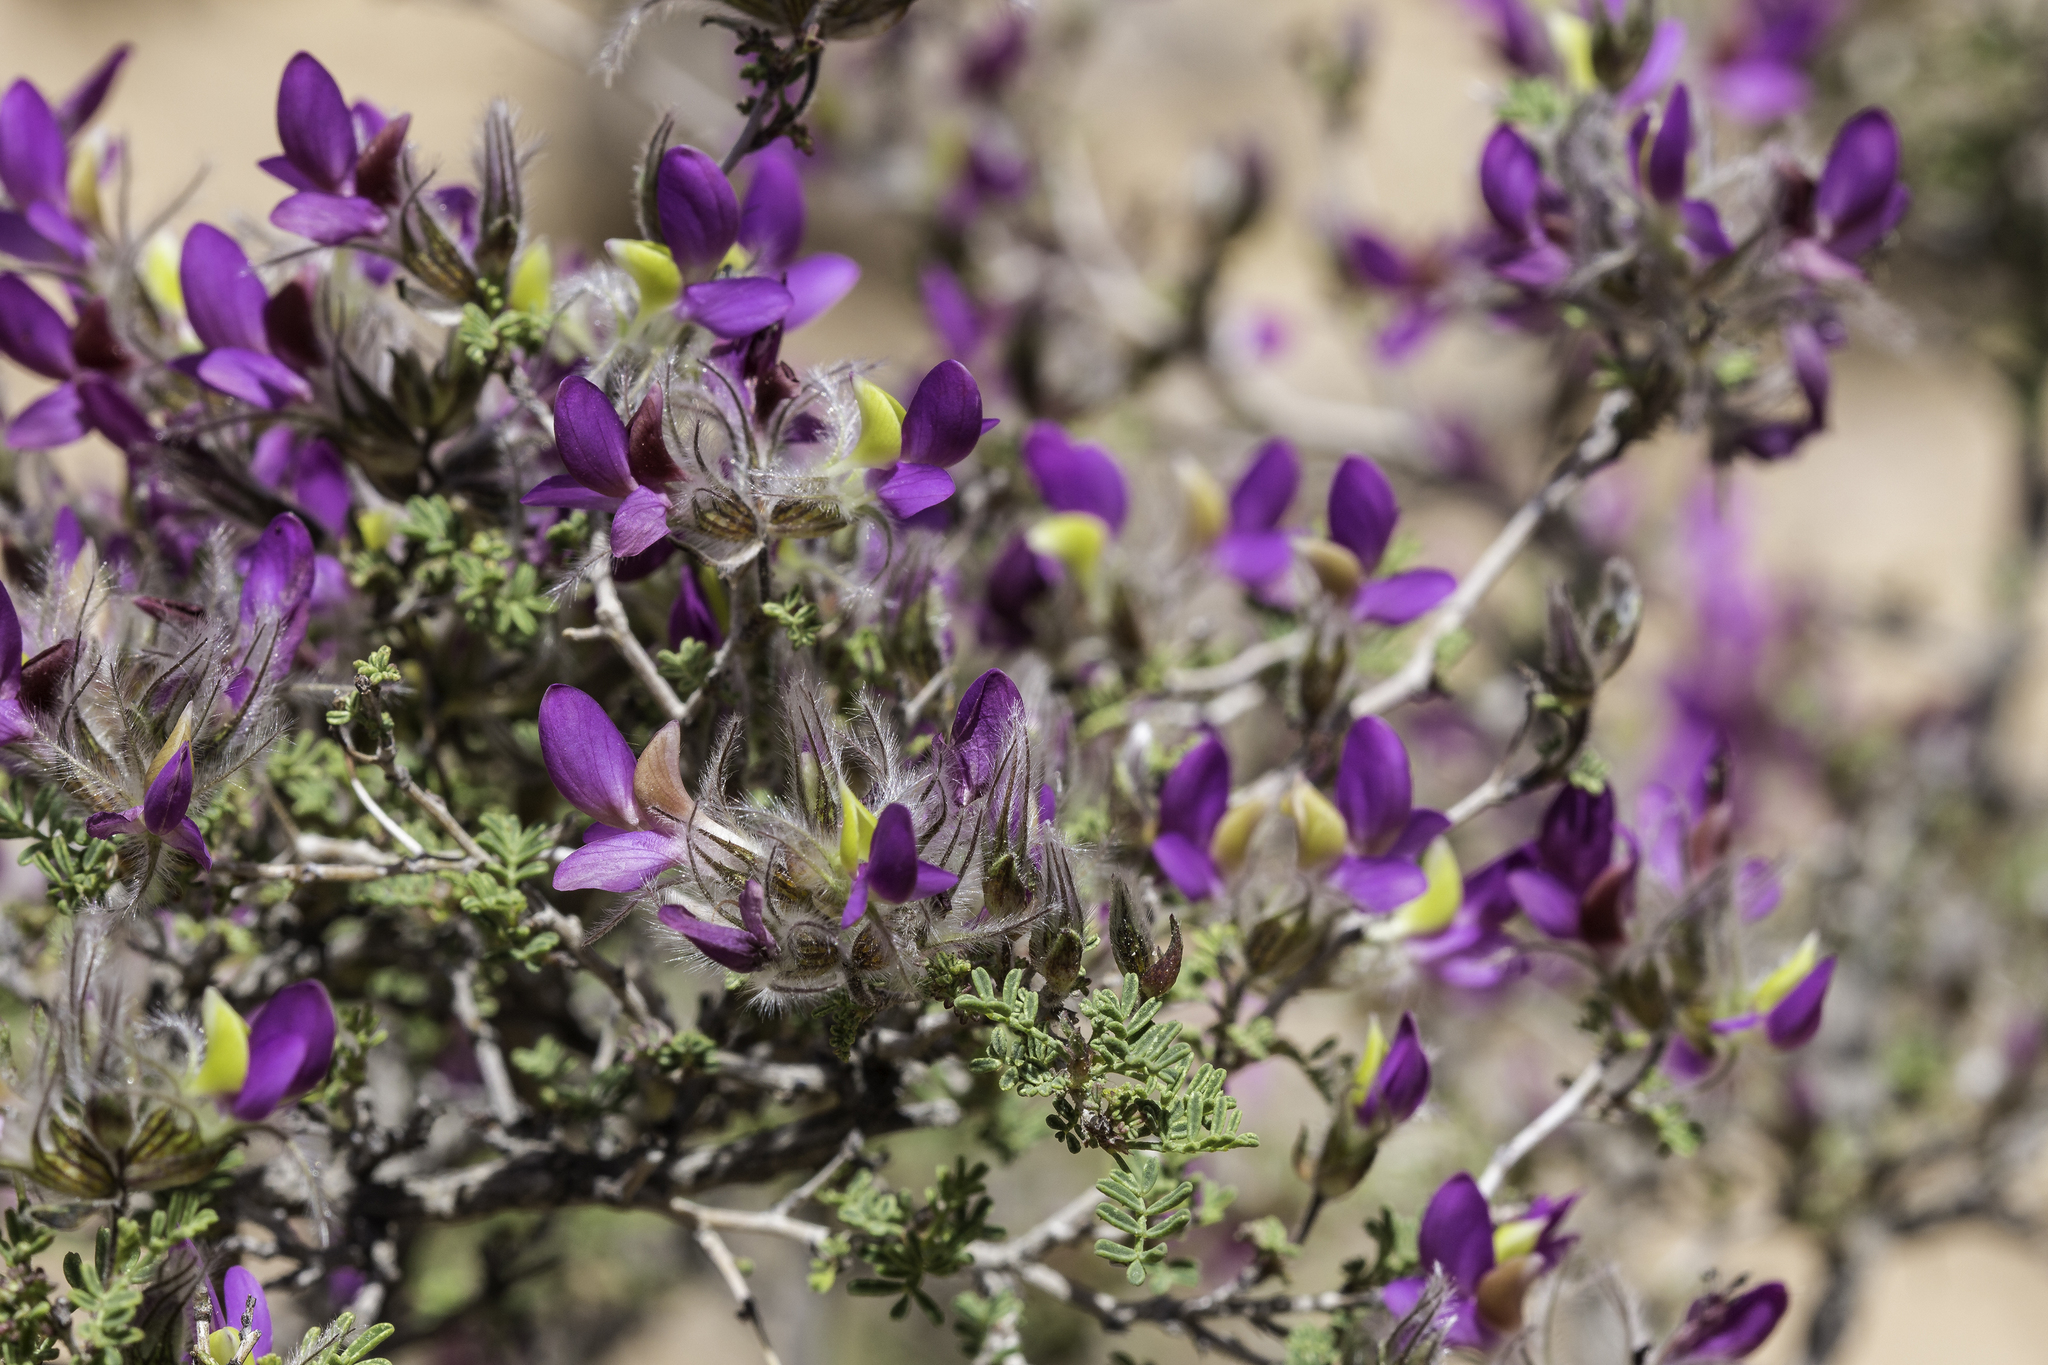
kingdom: Plantae
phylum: Tracheophyta
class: Magnoliopsida
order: Fabales
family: Fabaceae
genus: Dalea
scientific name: Dalea formosa
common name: Feather-plume dalea
